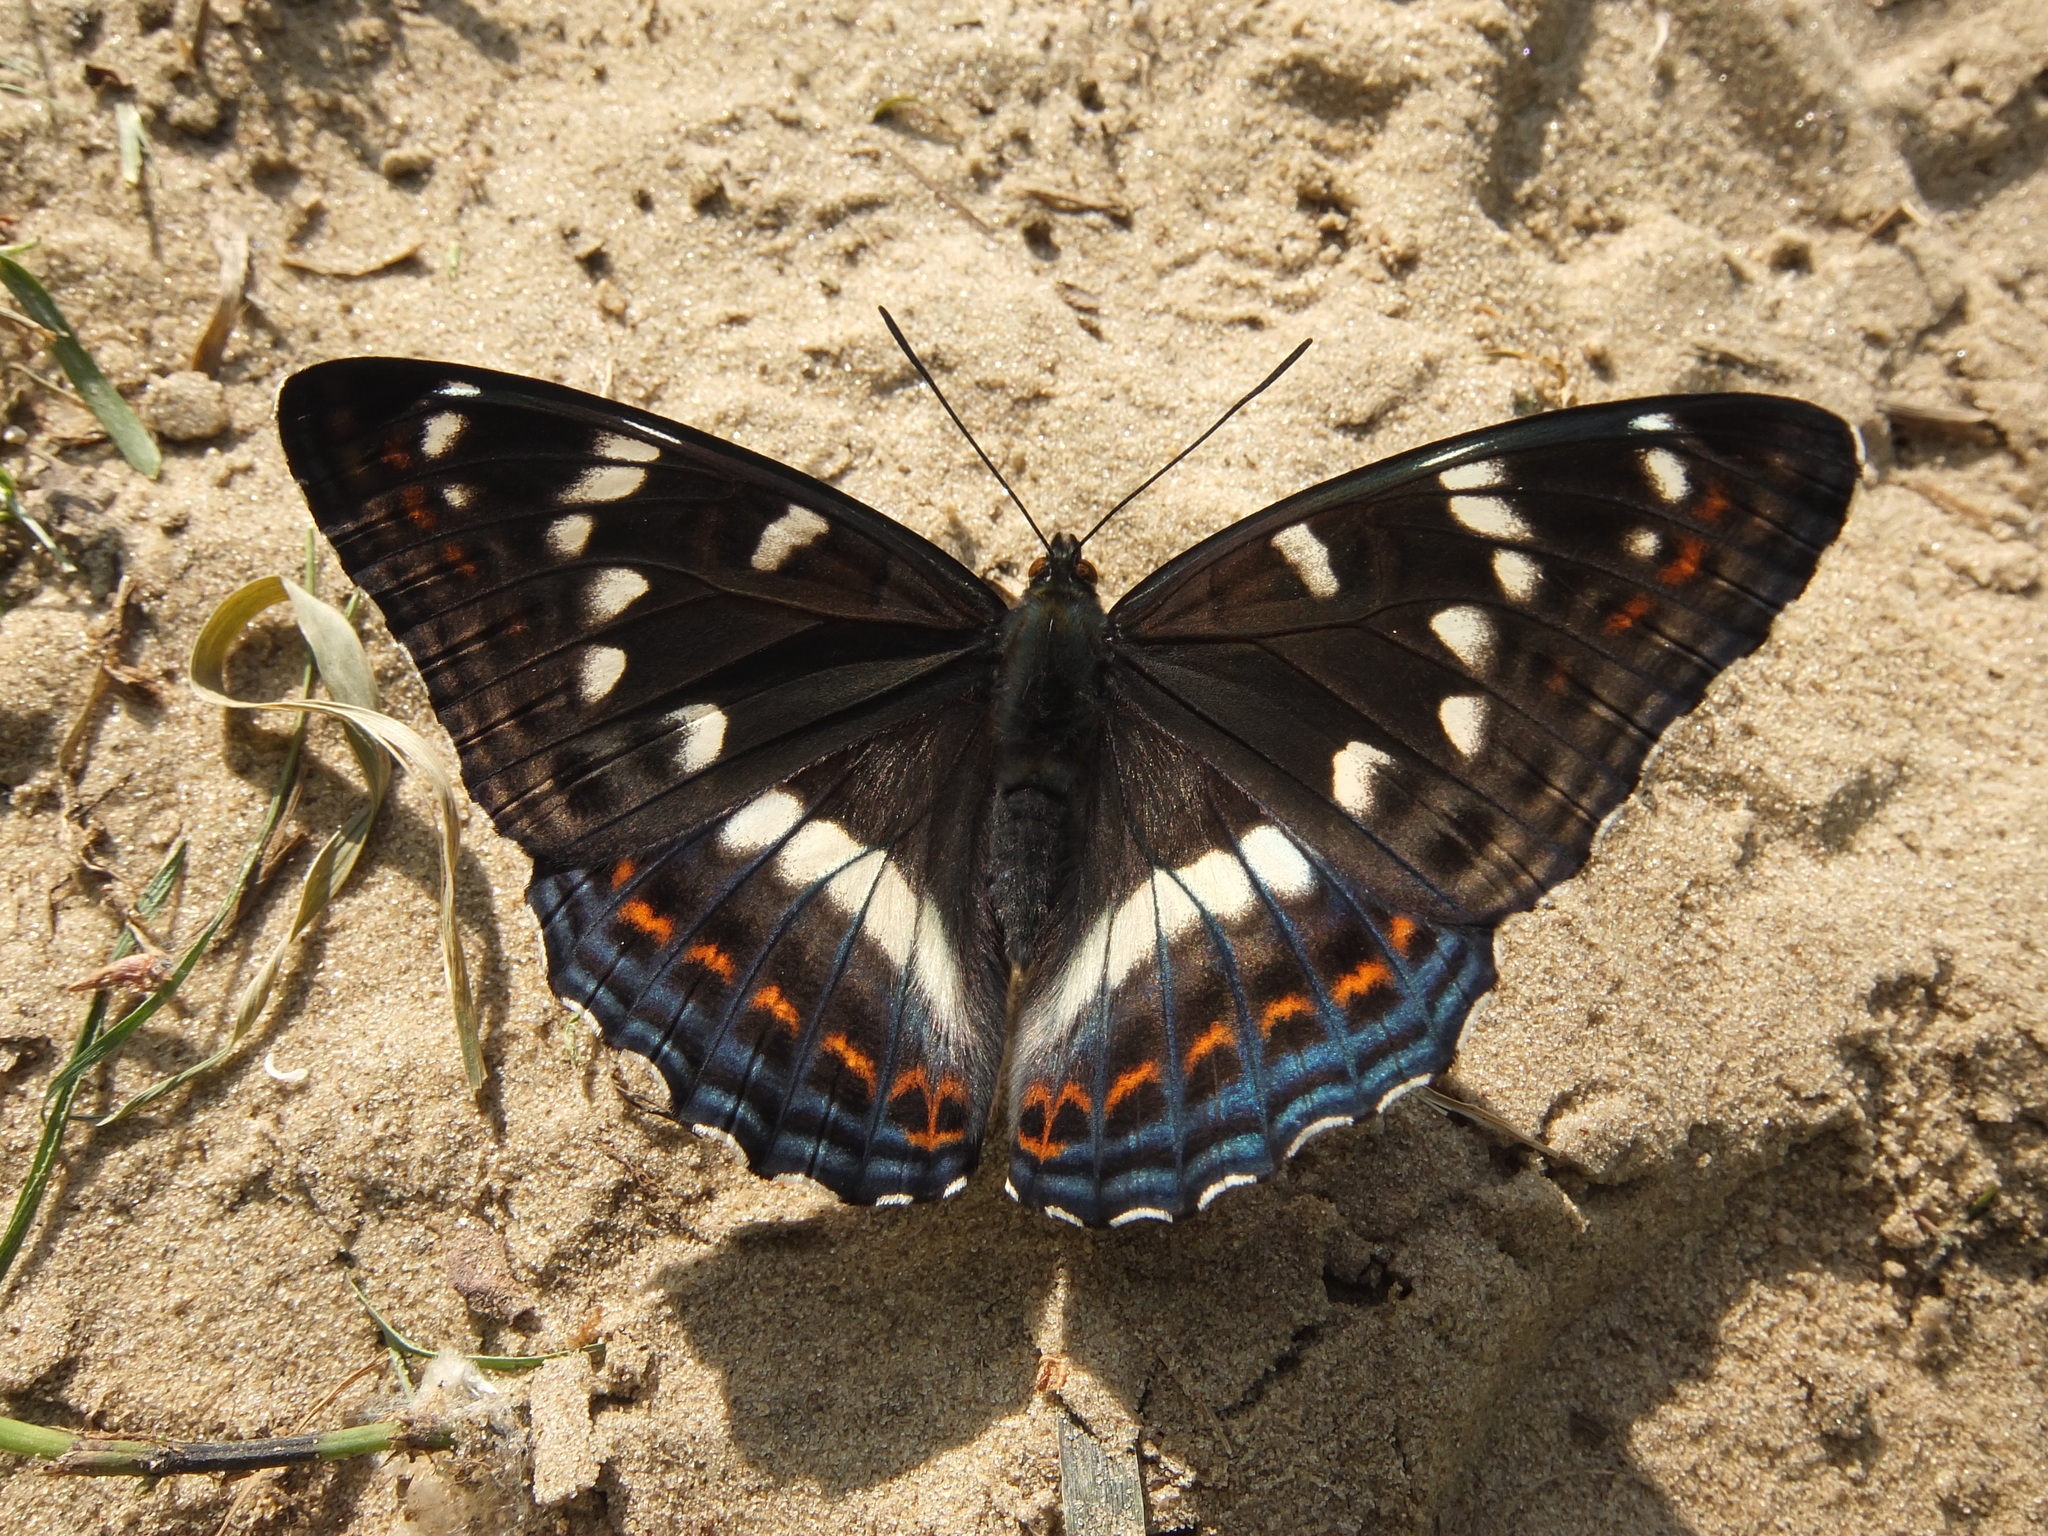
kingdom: Animalia
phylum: Arthropoda
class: Insecta
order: Lepidoptera
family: Nymphalidae
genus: Limenitis
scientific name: Limenitis populi
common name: Poplar admiral
